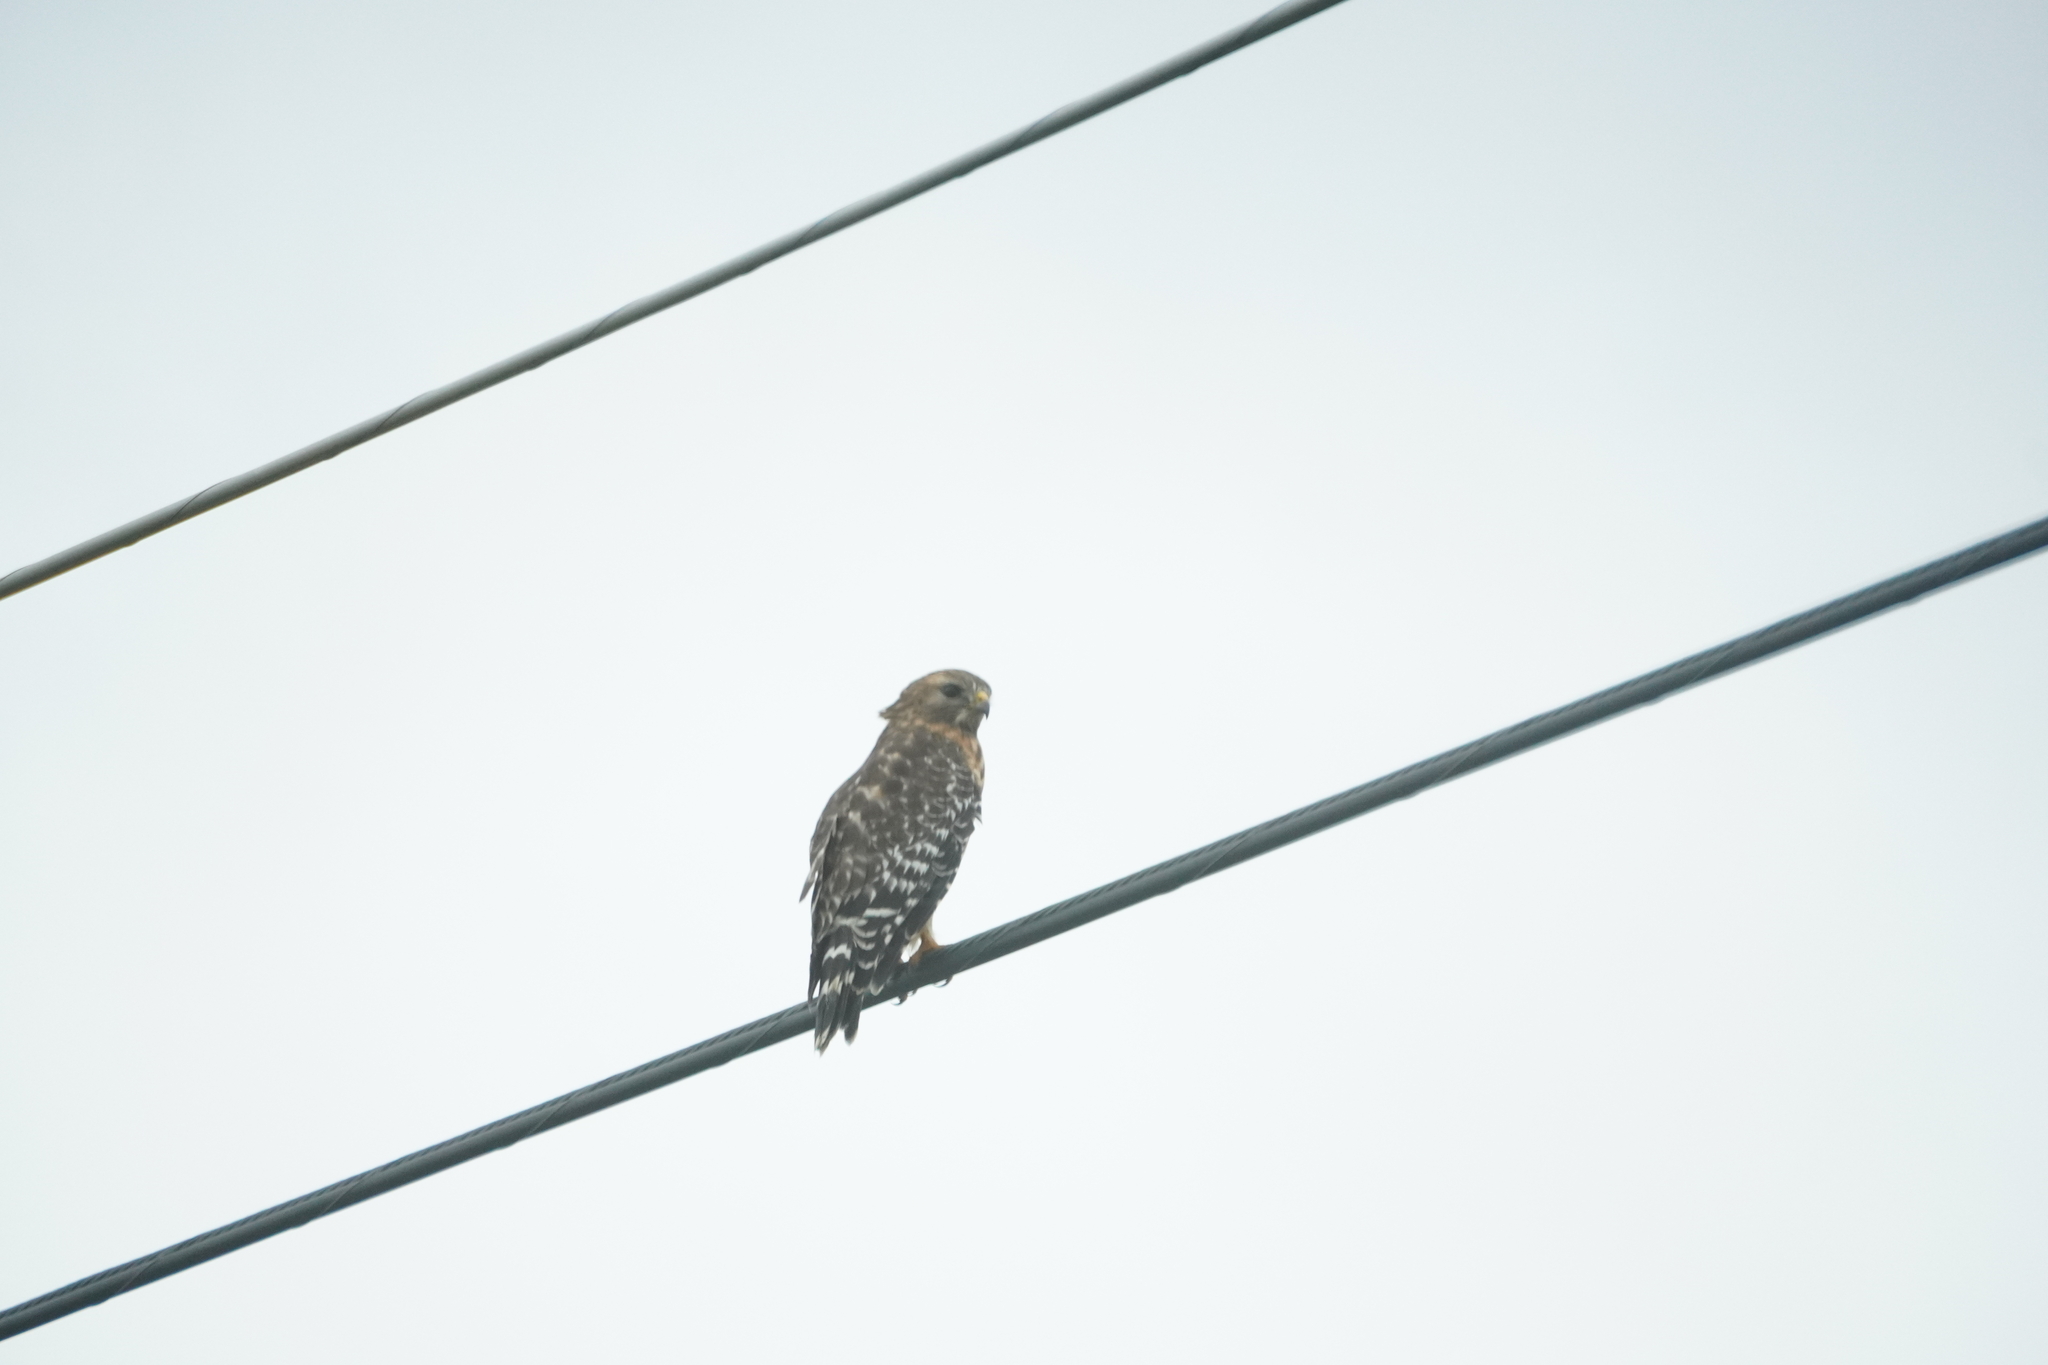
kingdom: Animalia
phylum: Chordata
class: Aves
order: Accipitriformes
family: Accipitridae
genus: Buteo
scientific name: Buteo lineatus
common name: Red-shouldered hawk
